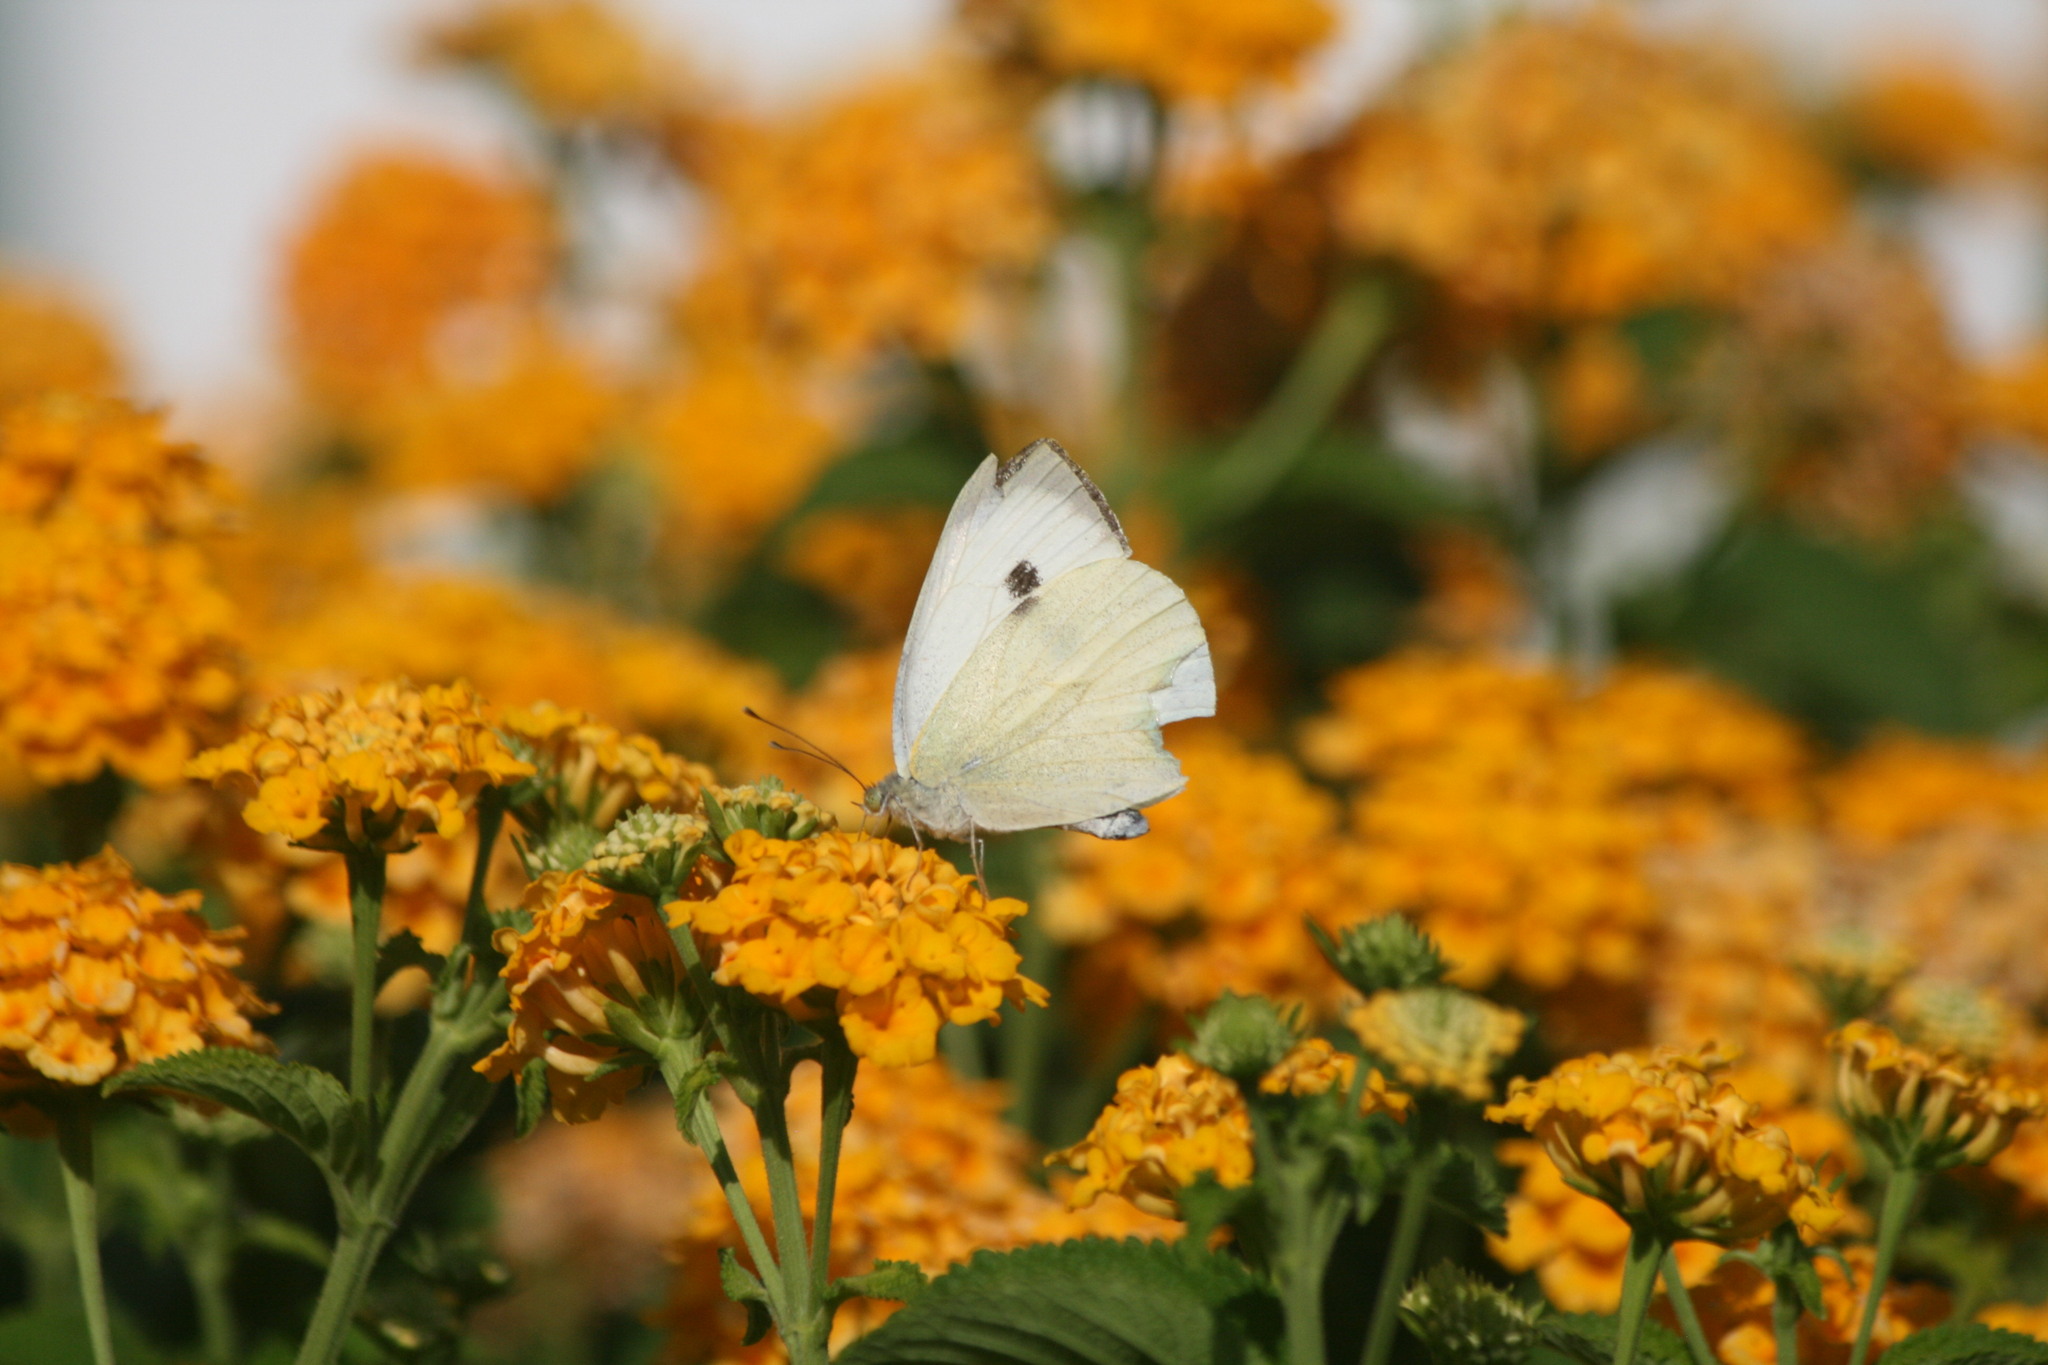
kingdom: Animalia
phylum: Arthropoda
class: Insecta
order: Lepidoptera
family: Pieridae
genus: Pieris
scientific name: Pieris brassicae
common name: Large white
